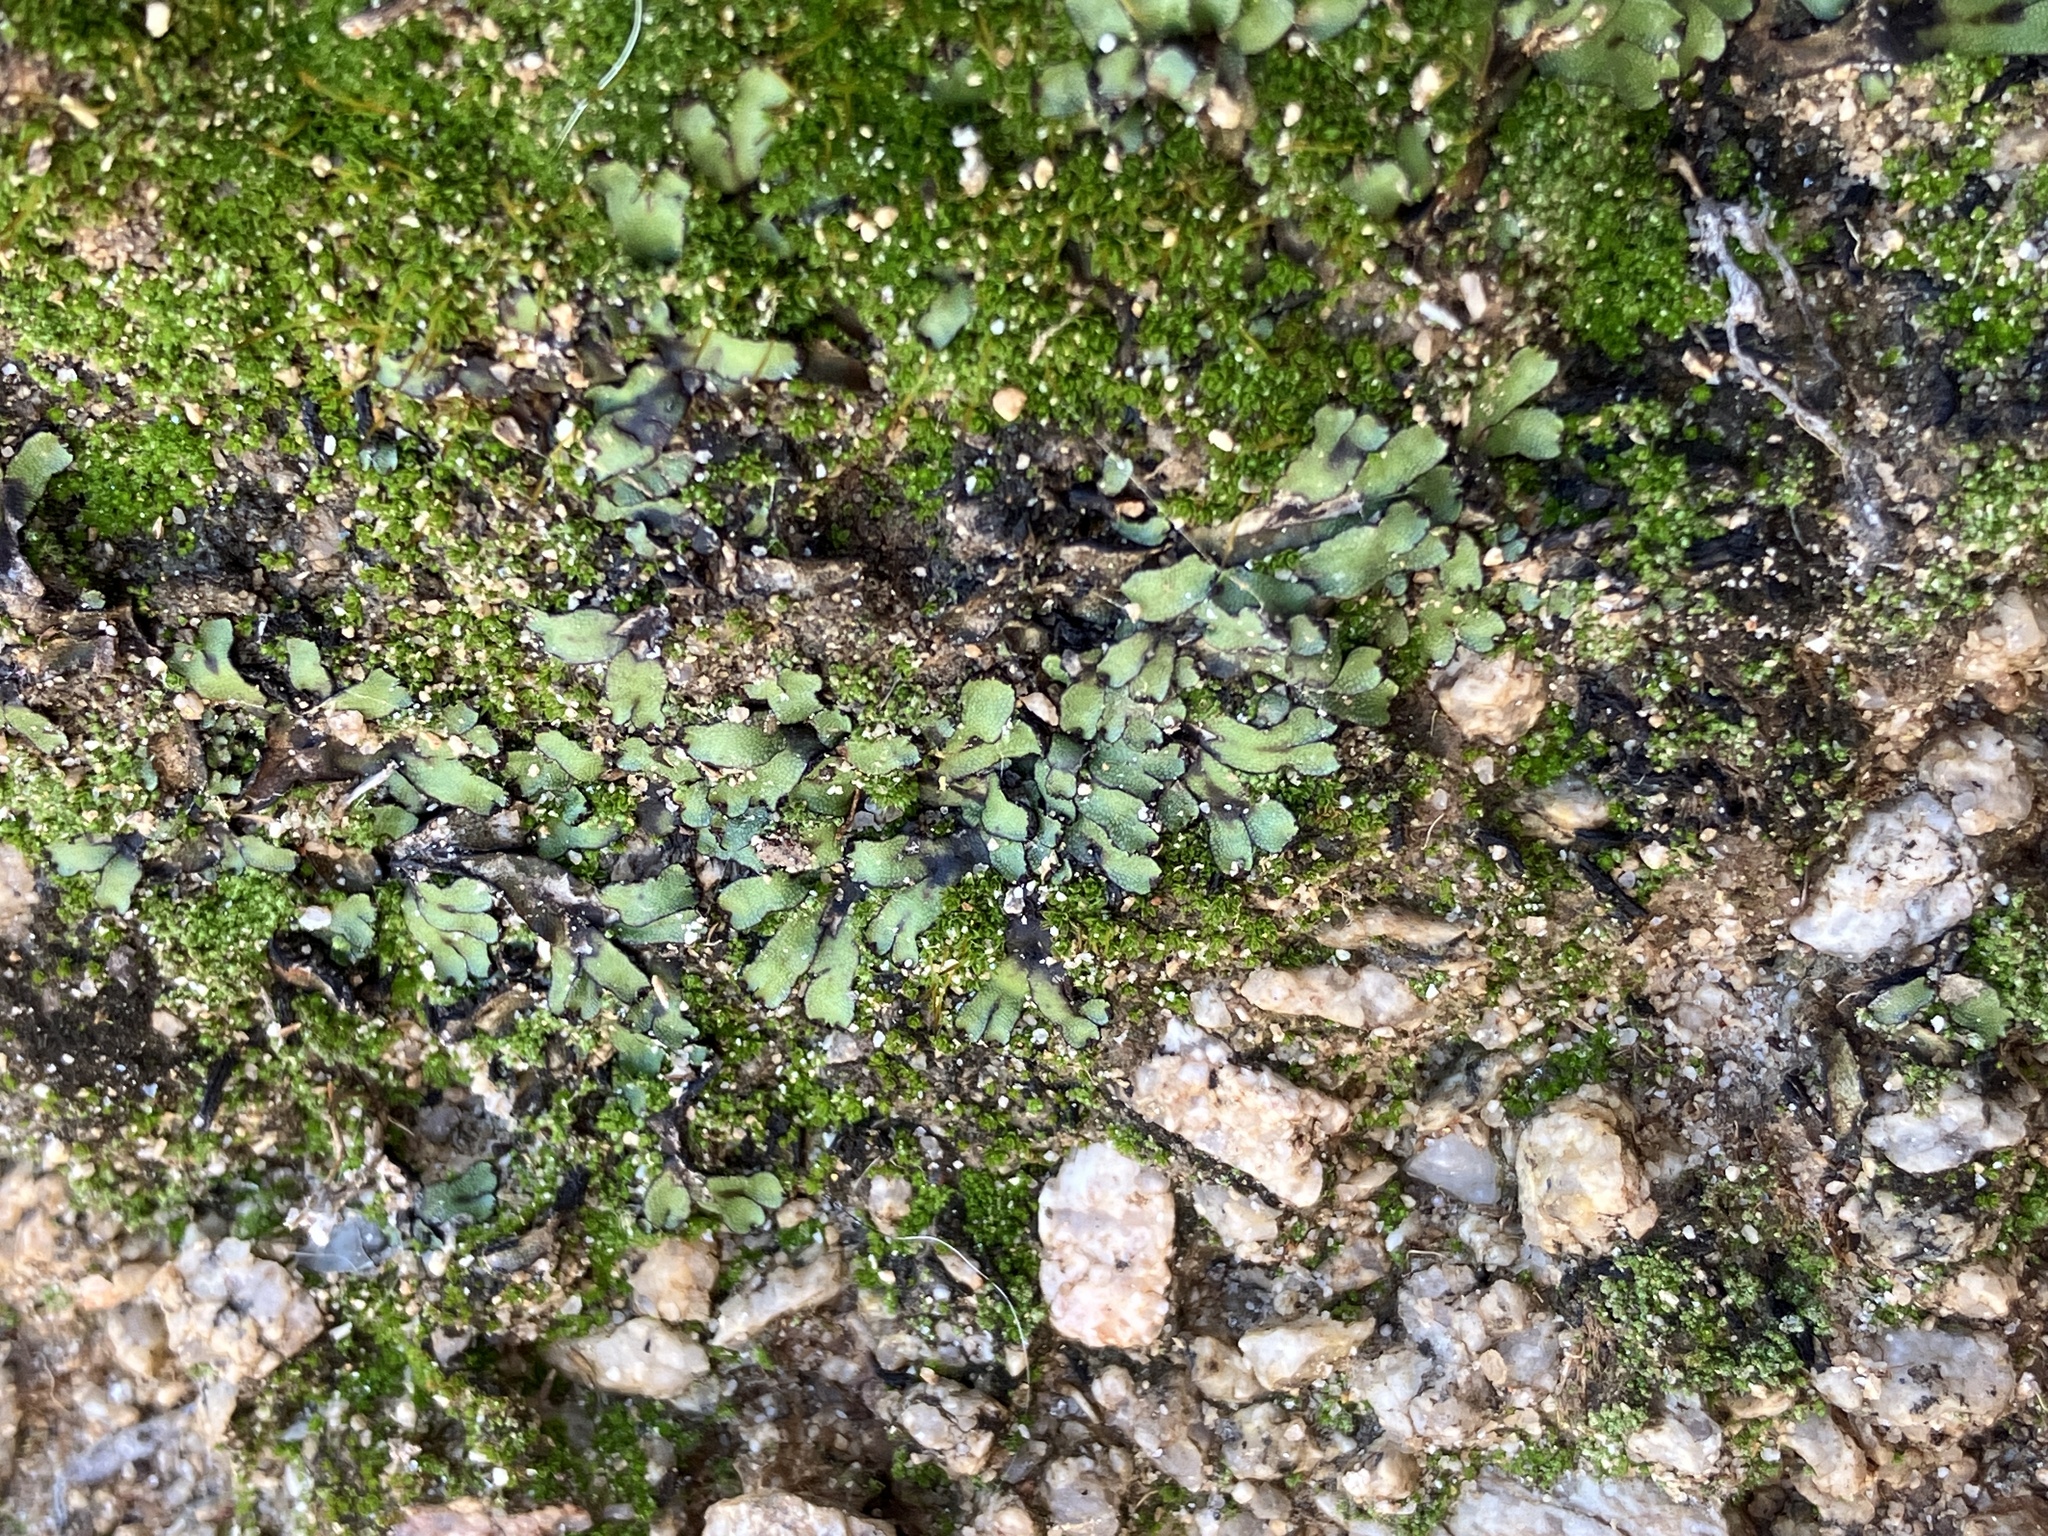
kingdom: Plantae
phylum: Marchantiophyta
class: Marchantiopsida
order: Marchantiales
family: Targioniaceae
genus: Targionia
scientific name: Targionia hypophylla
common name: Orobus-seed liverwort
